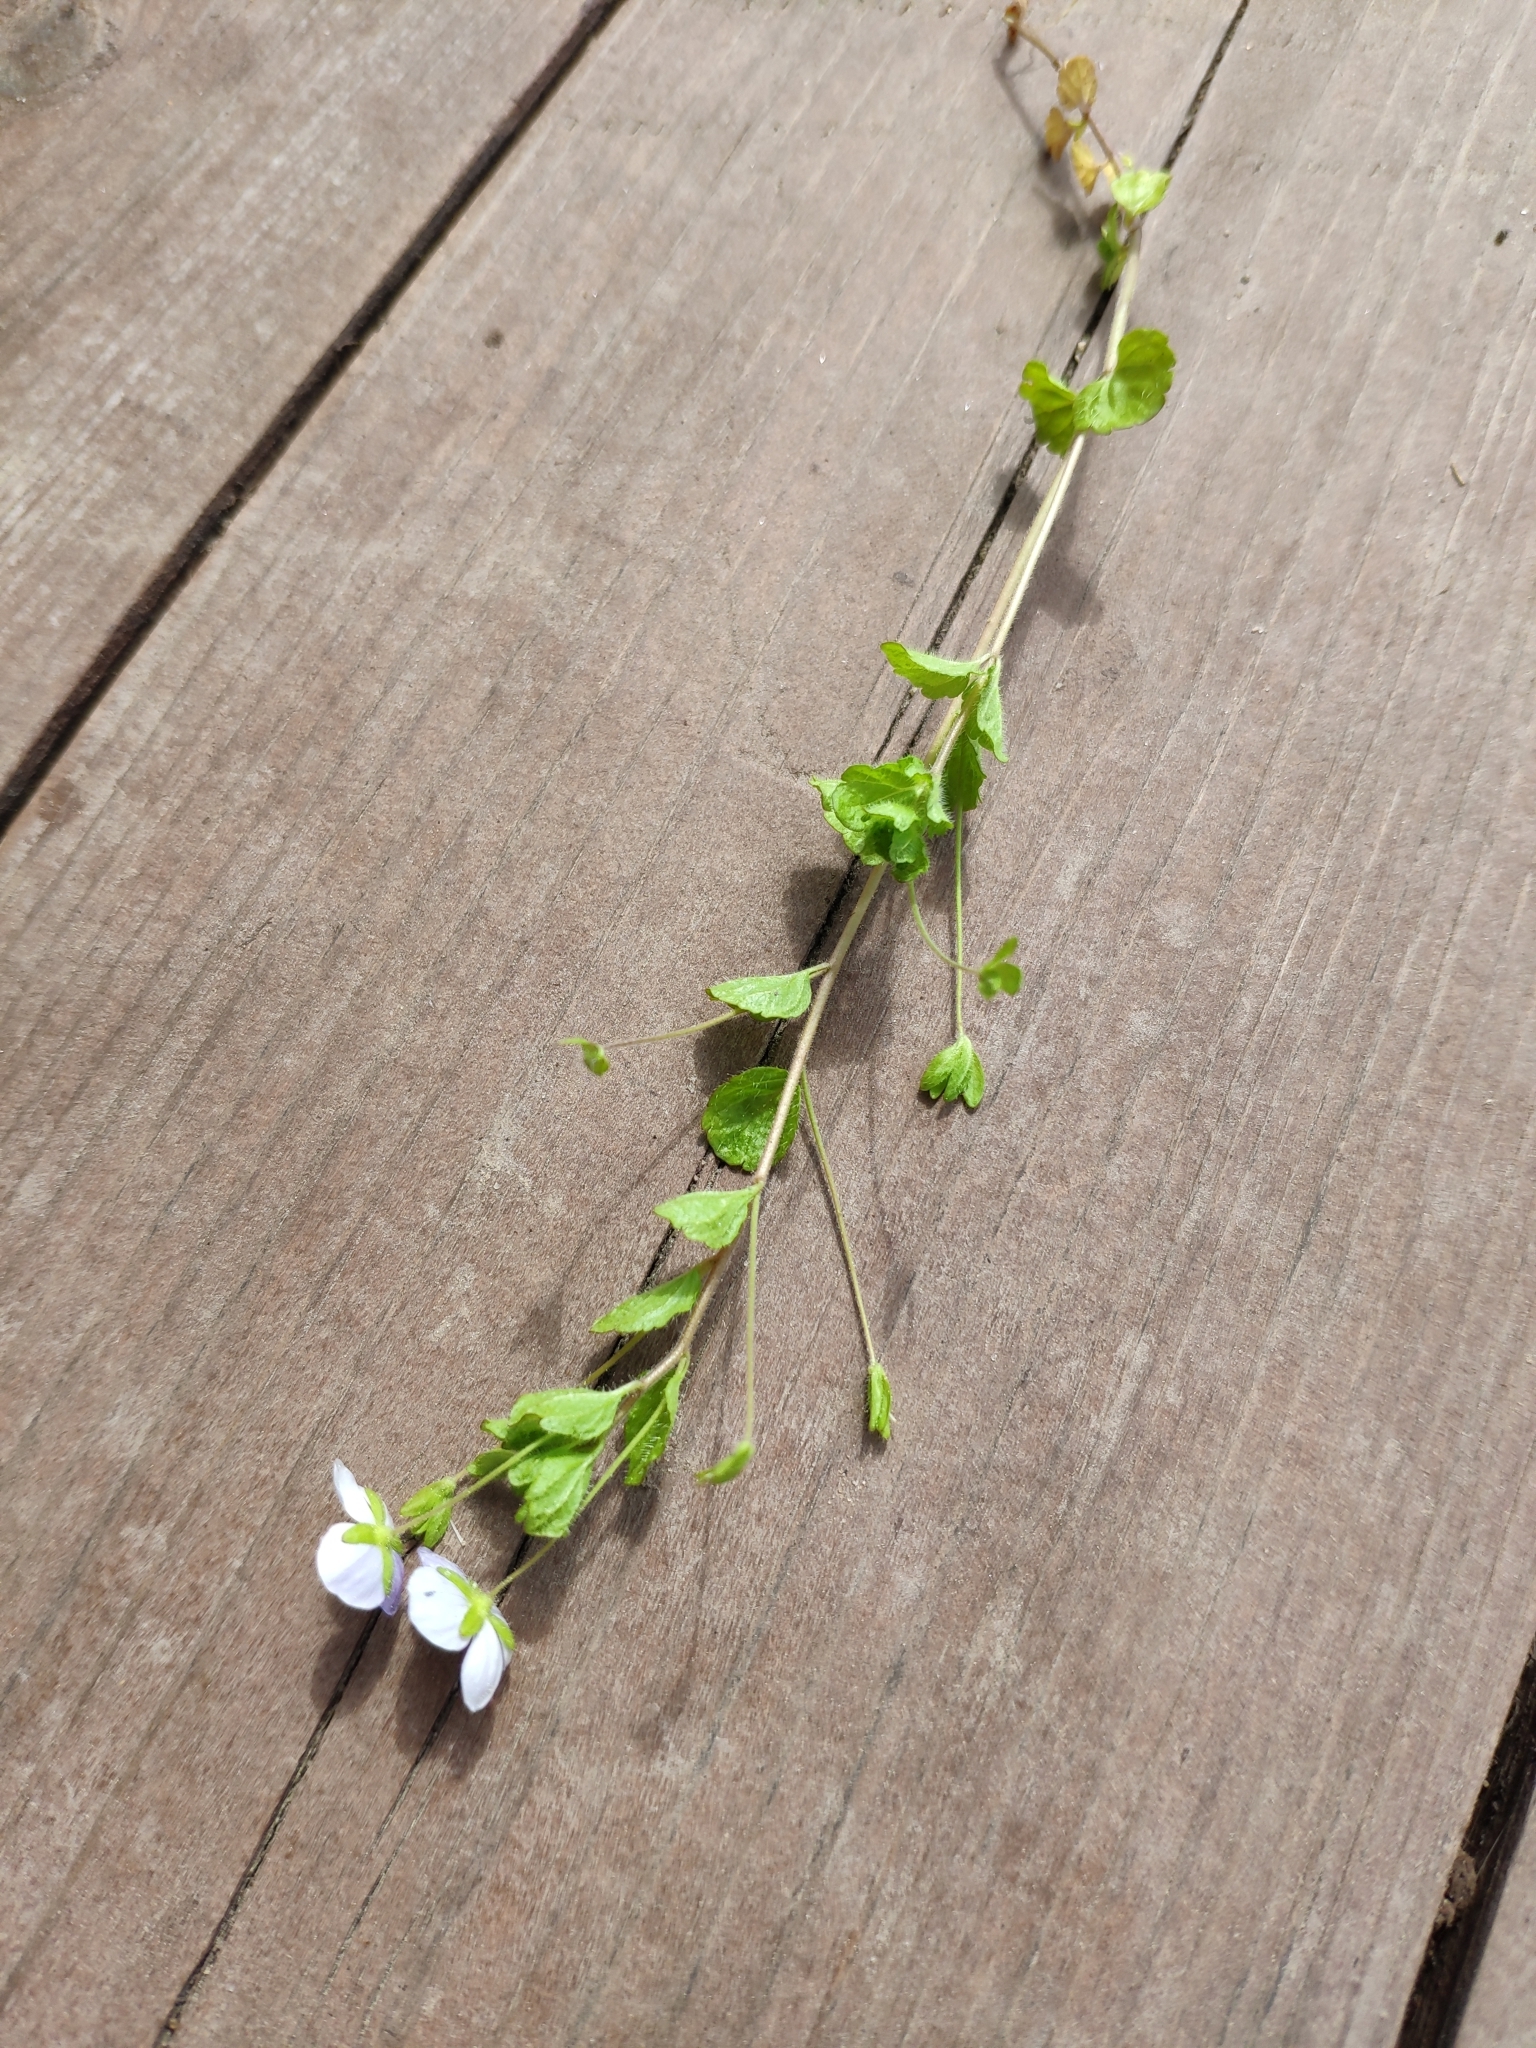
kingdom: Plantae
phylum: Tracheophyta
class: Magnoliopsida
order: Lamiales
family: Plantaginaceae
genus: Veronica
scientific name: Veronica filiformis
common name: Slender speedwell
